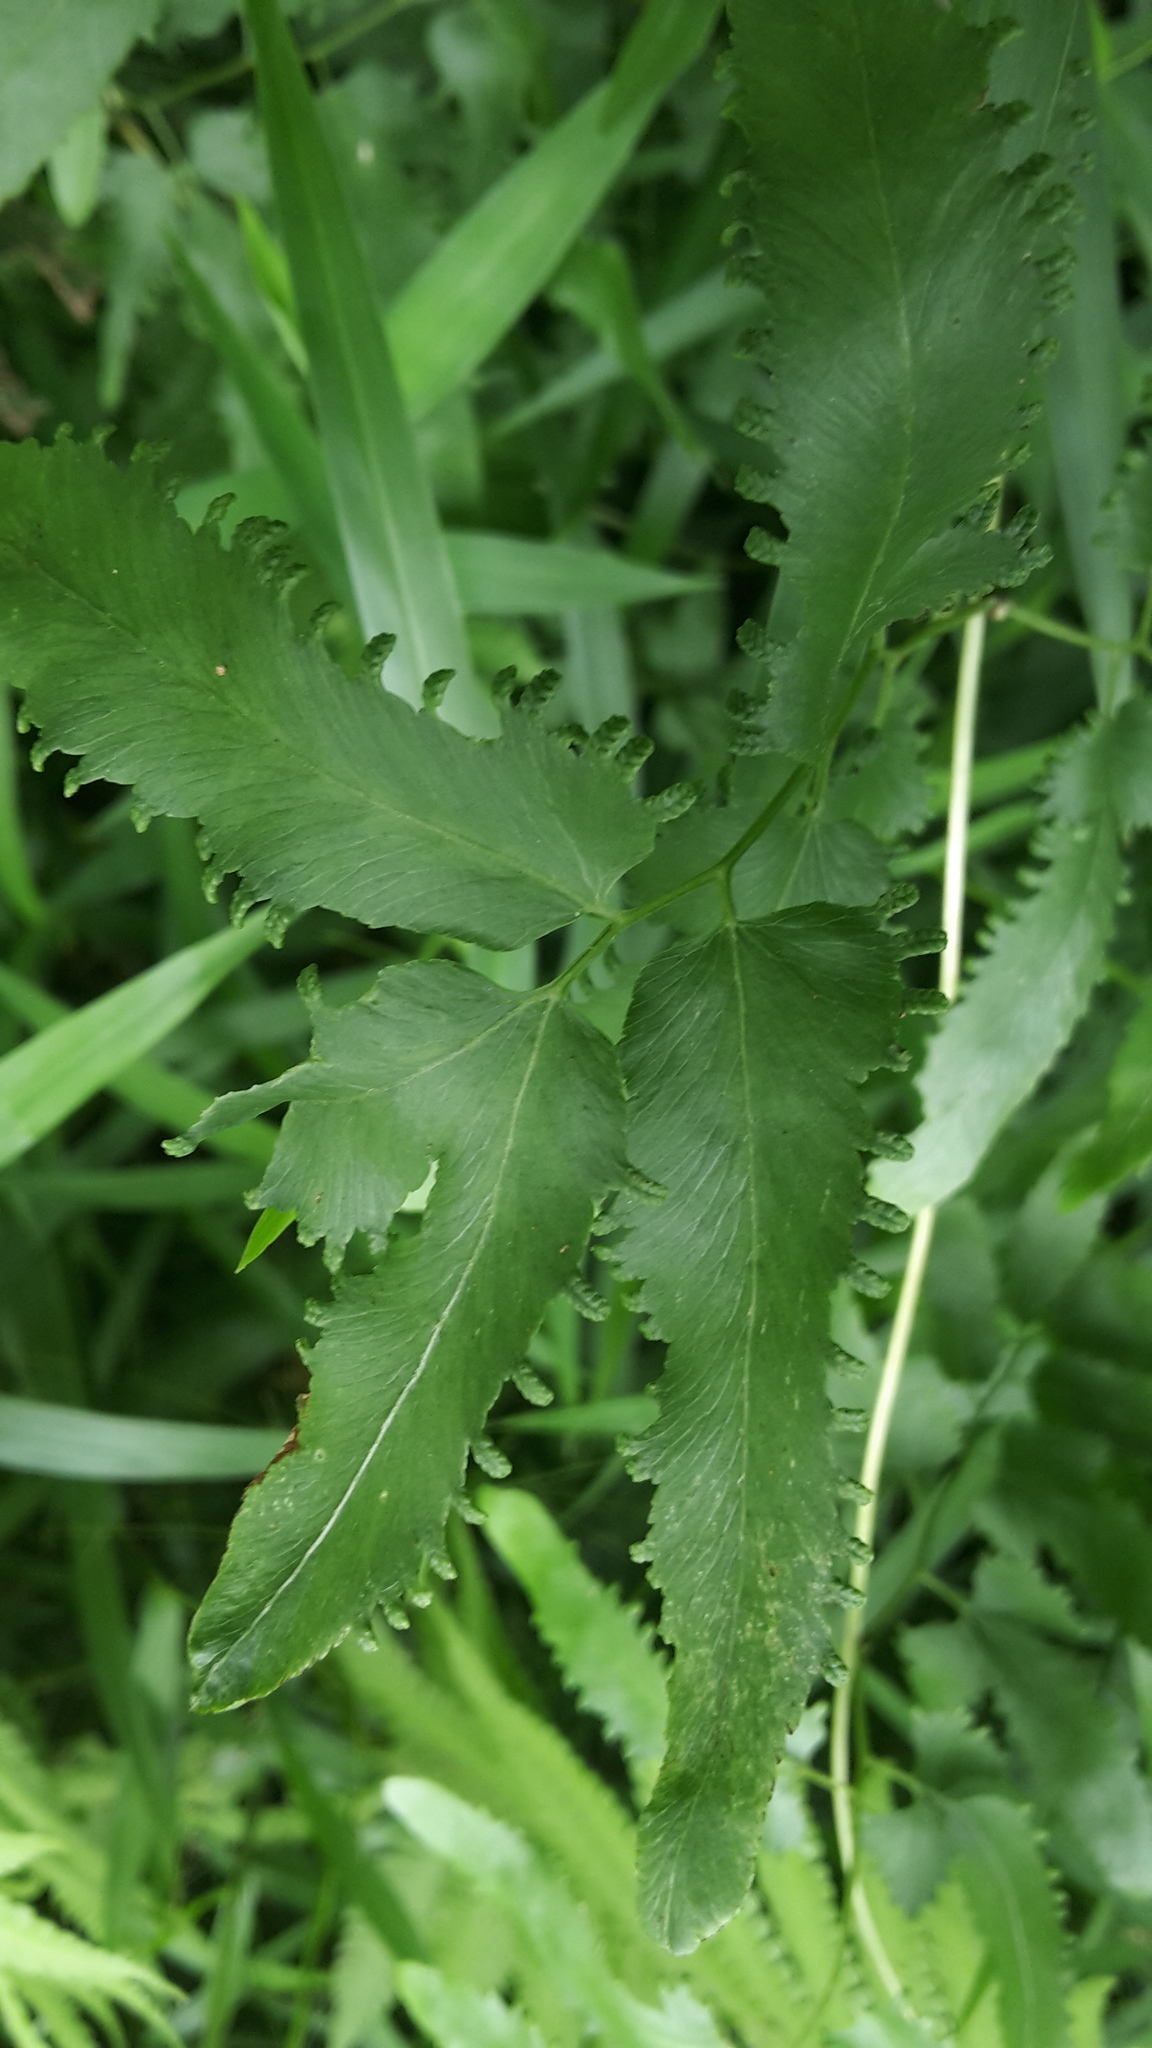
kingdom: Plantae
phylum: Tracheophyta
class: Polypodiopsida
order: Schizaeales
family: Lygodiaceae
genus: Lygodium
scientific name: Lygodium flexuosum
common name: Maidenhair creeper
